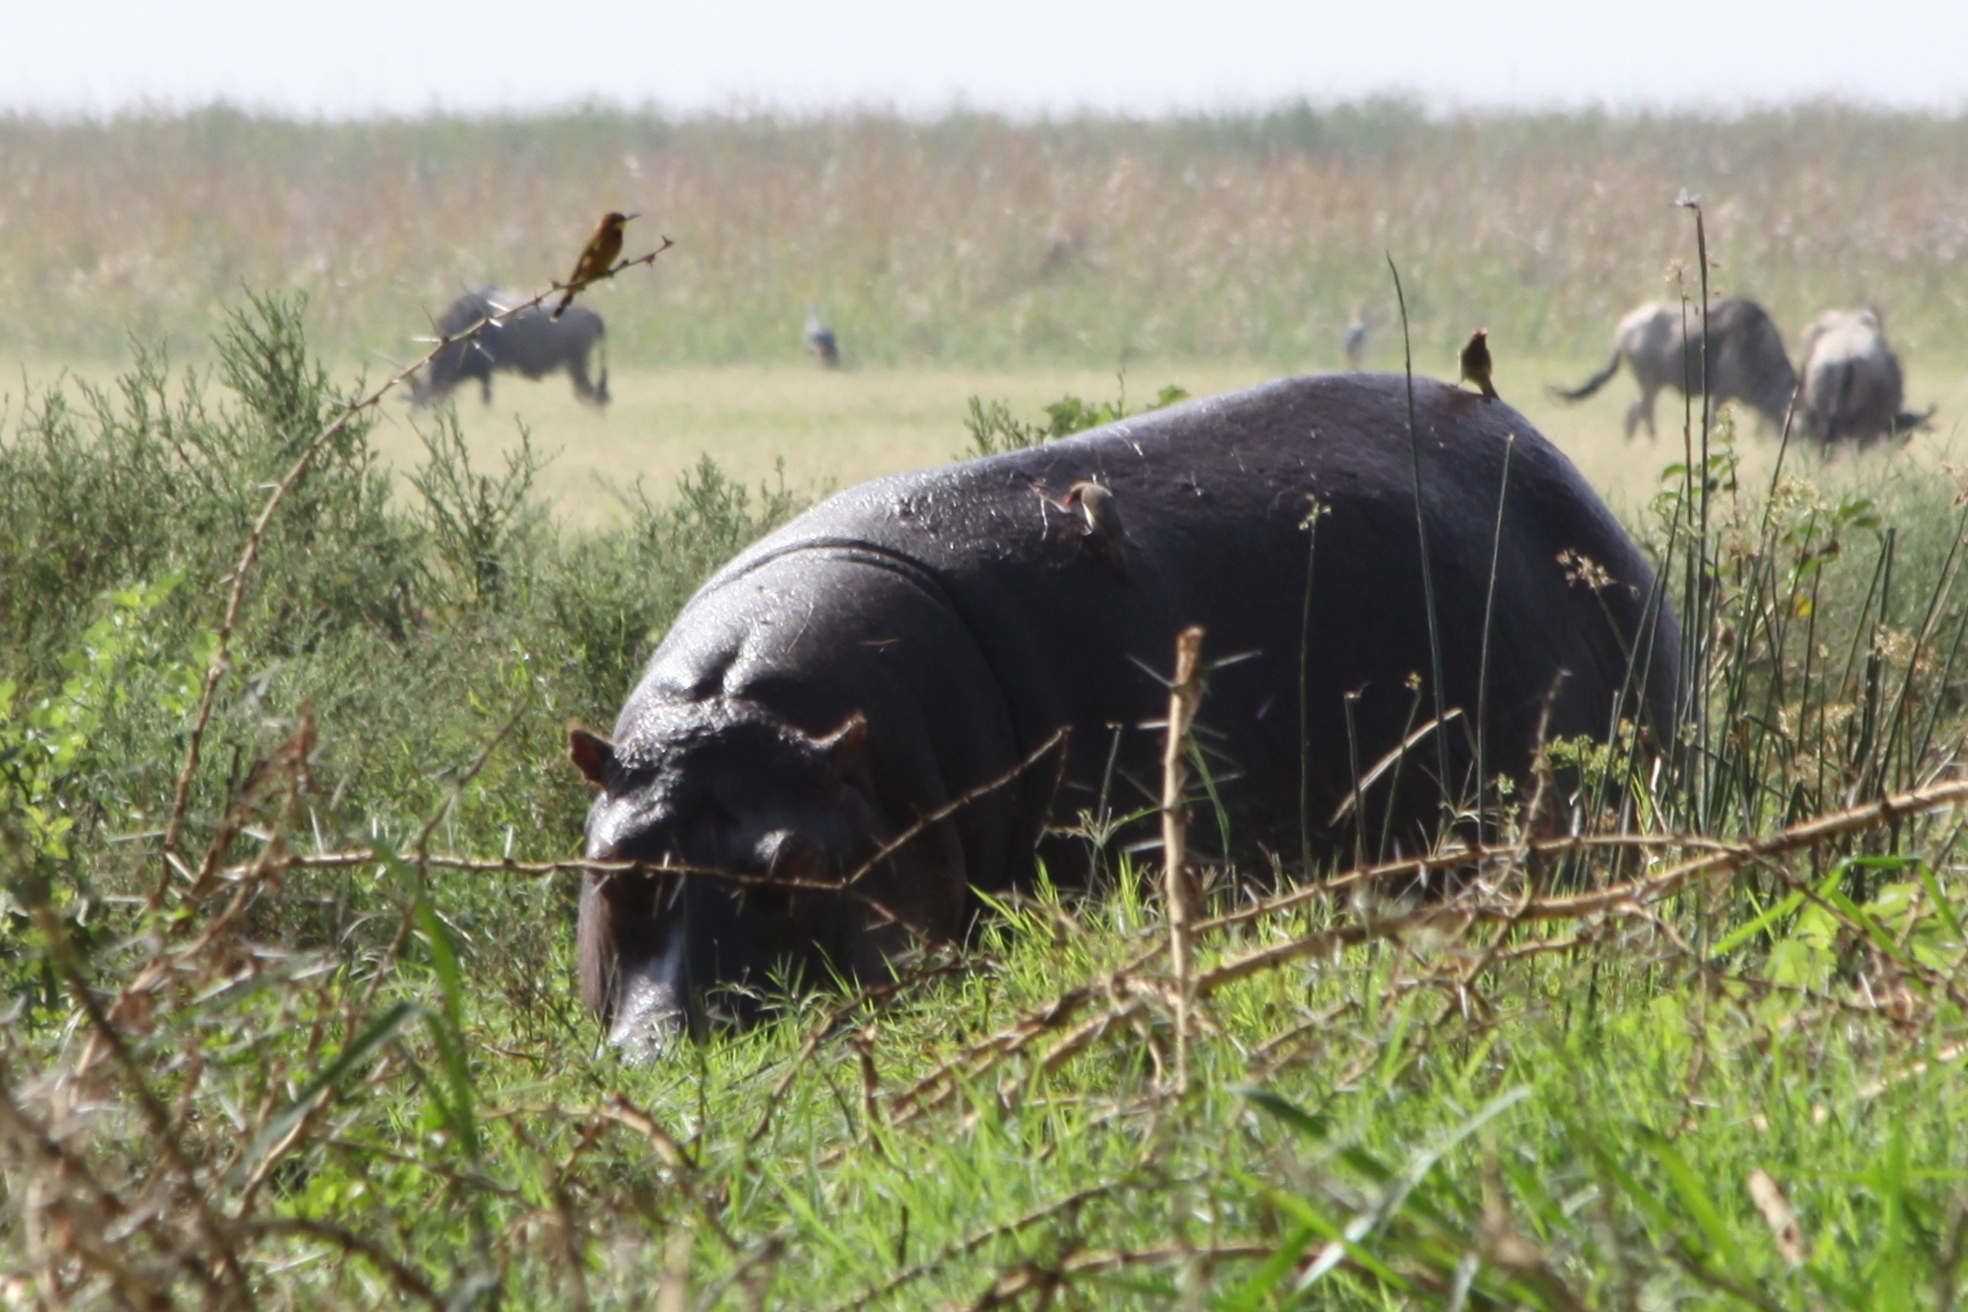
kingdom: Animalia
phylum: Chordata
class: Mammalia
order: Artiodactyla
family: Hippopotamidae
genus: Hippopotamus
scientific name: Hippopotamus amphibius
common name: Common hippopotamus
